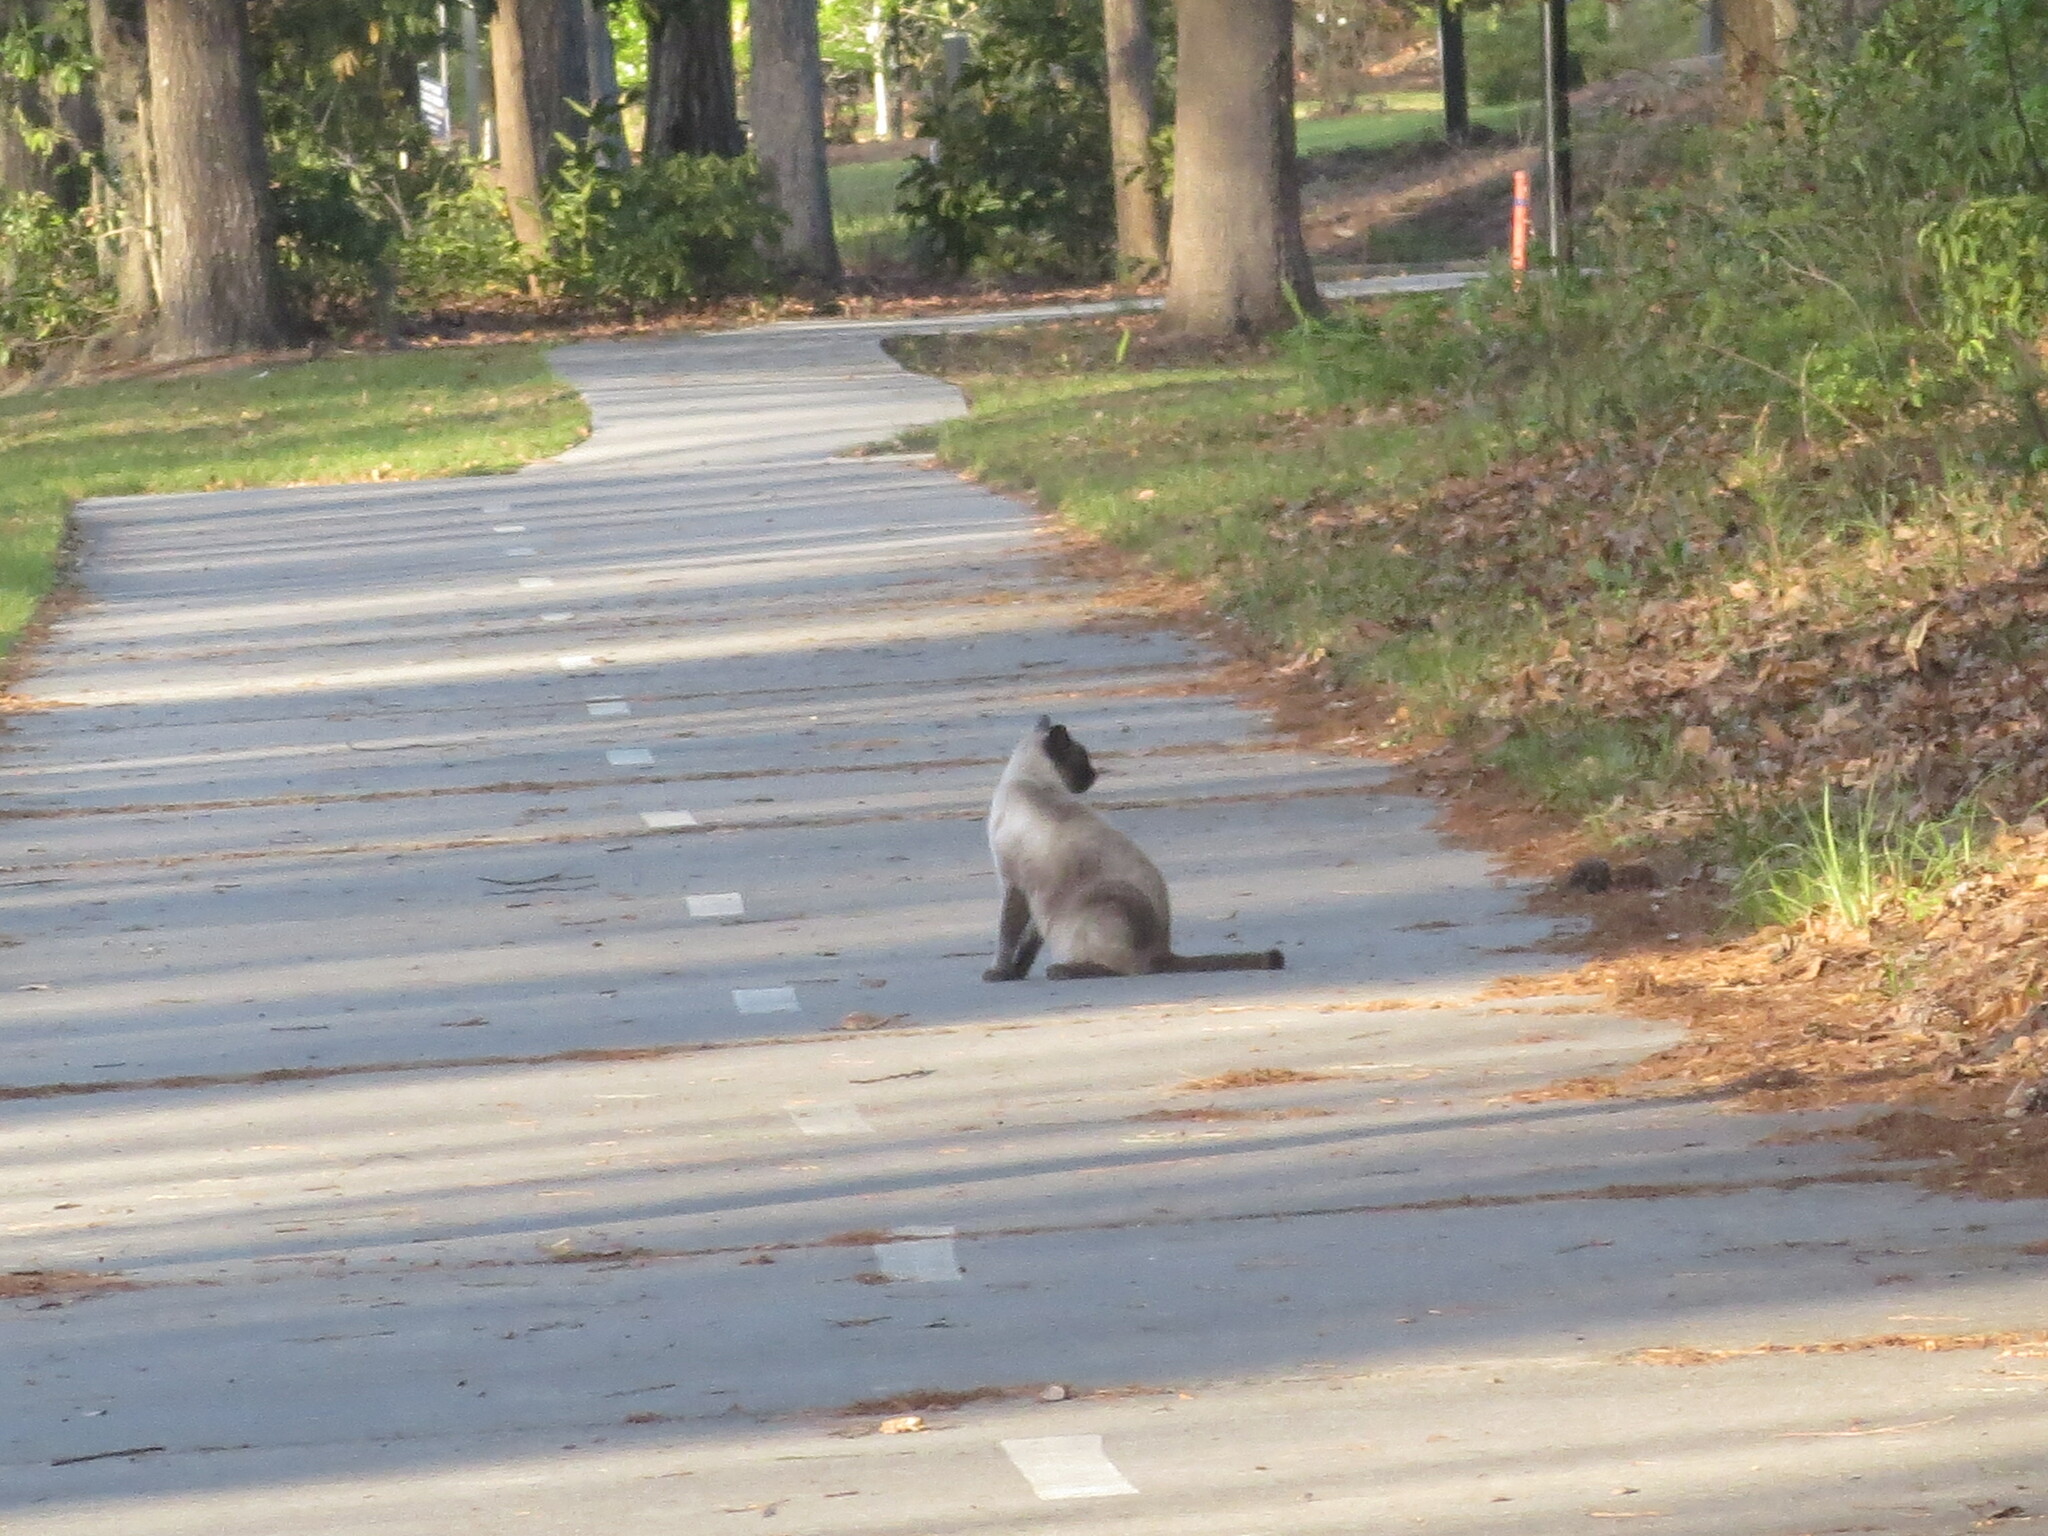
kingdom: Animalia
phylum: Chordata
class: Mammalia
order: Carnivora
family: Felidae
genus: Felis
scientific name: Felis catus
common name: Domestic cat
